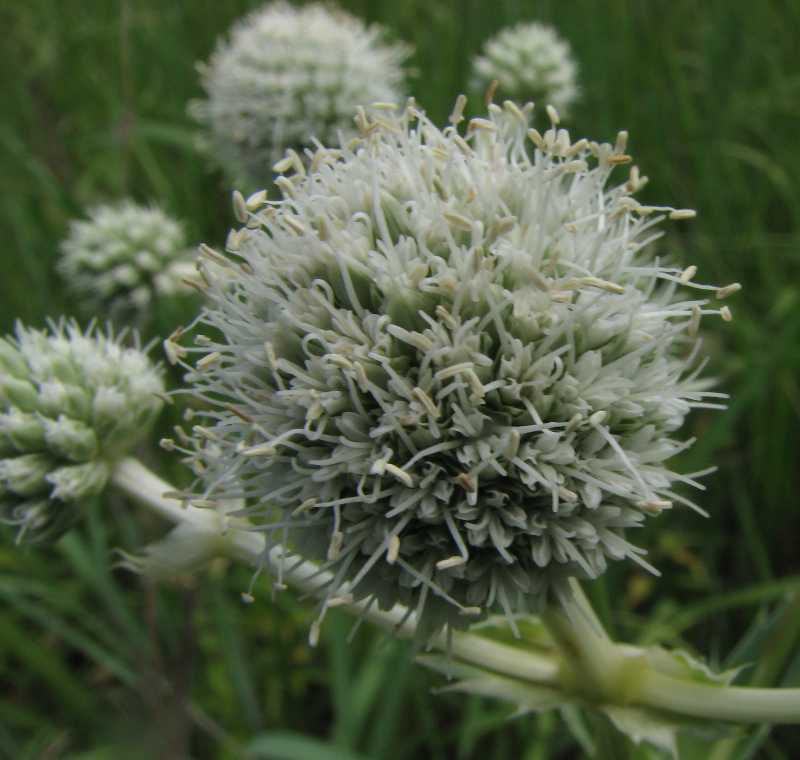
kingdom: Plantae
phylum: Tracheophyta
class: Magnoliopsida
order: Apiales
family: Apiaceae
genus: Eryngium
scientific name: Eryngium yuccifolium
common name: Button eryngo
